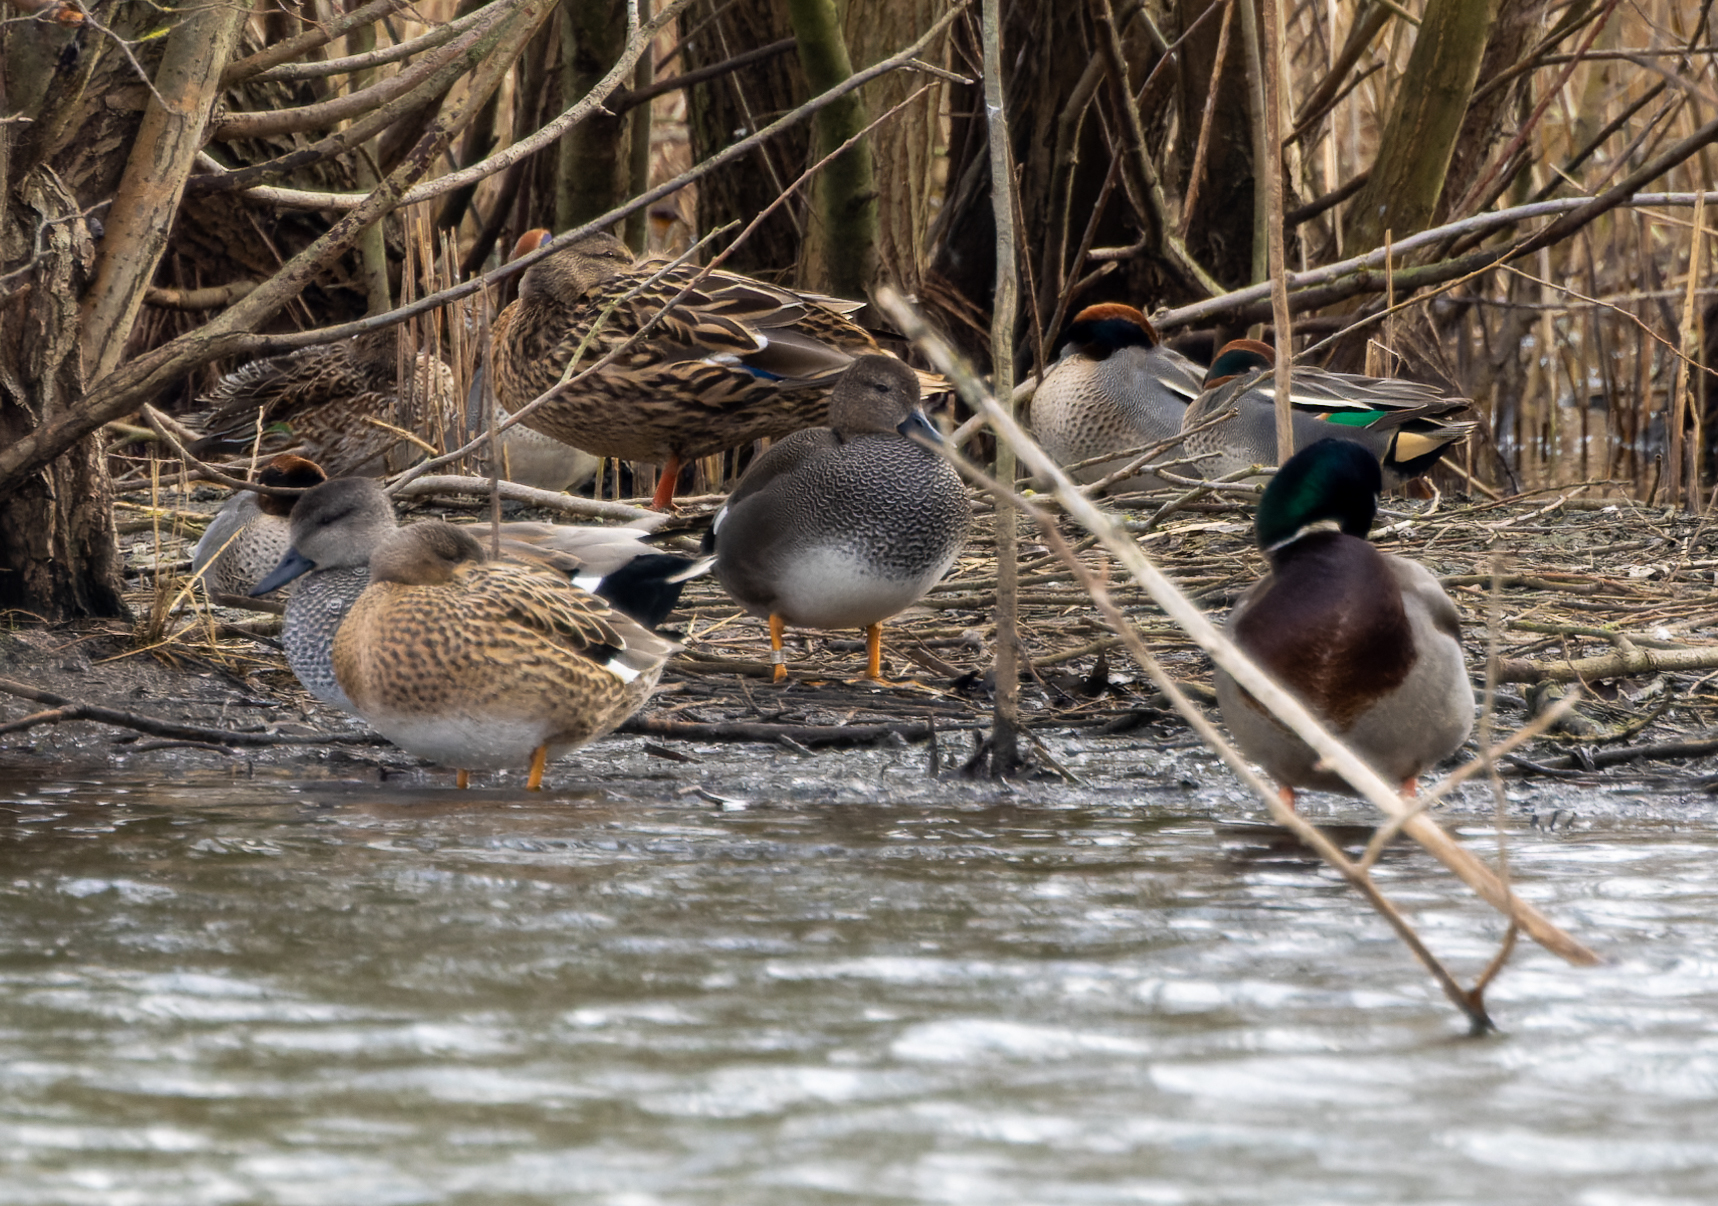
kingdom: Animalia
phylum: Chordata
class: Aves
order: Anseriformes
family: Anatidae
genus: Mareca
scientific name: Mareca strepera
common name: Gadwall
